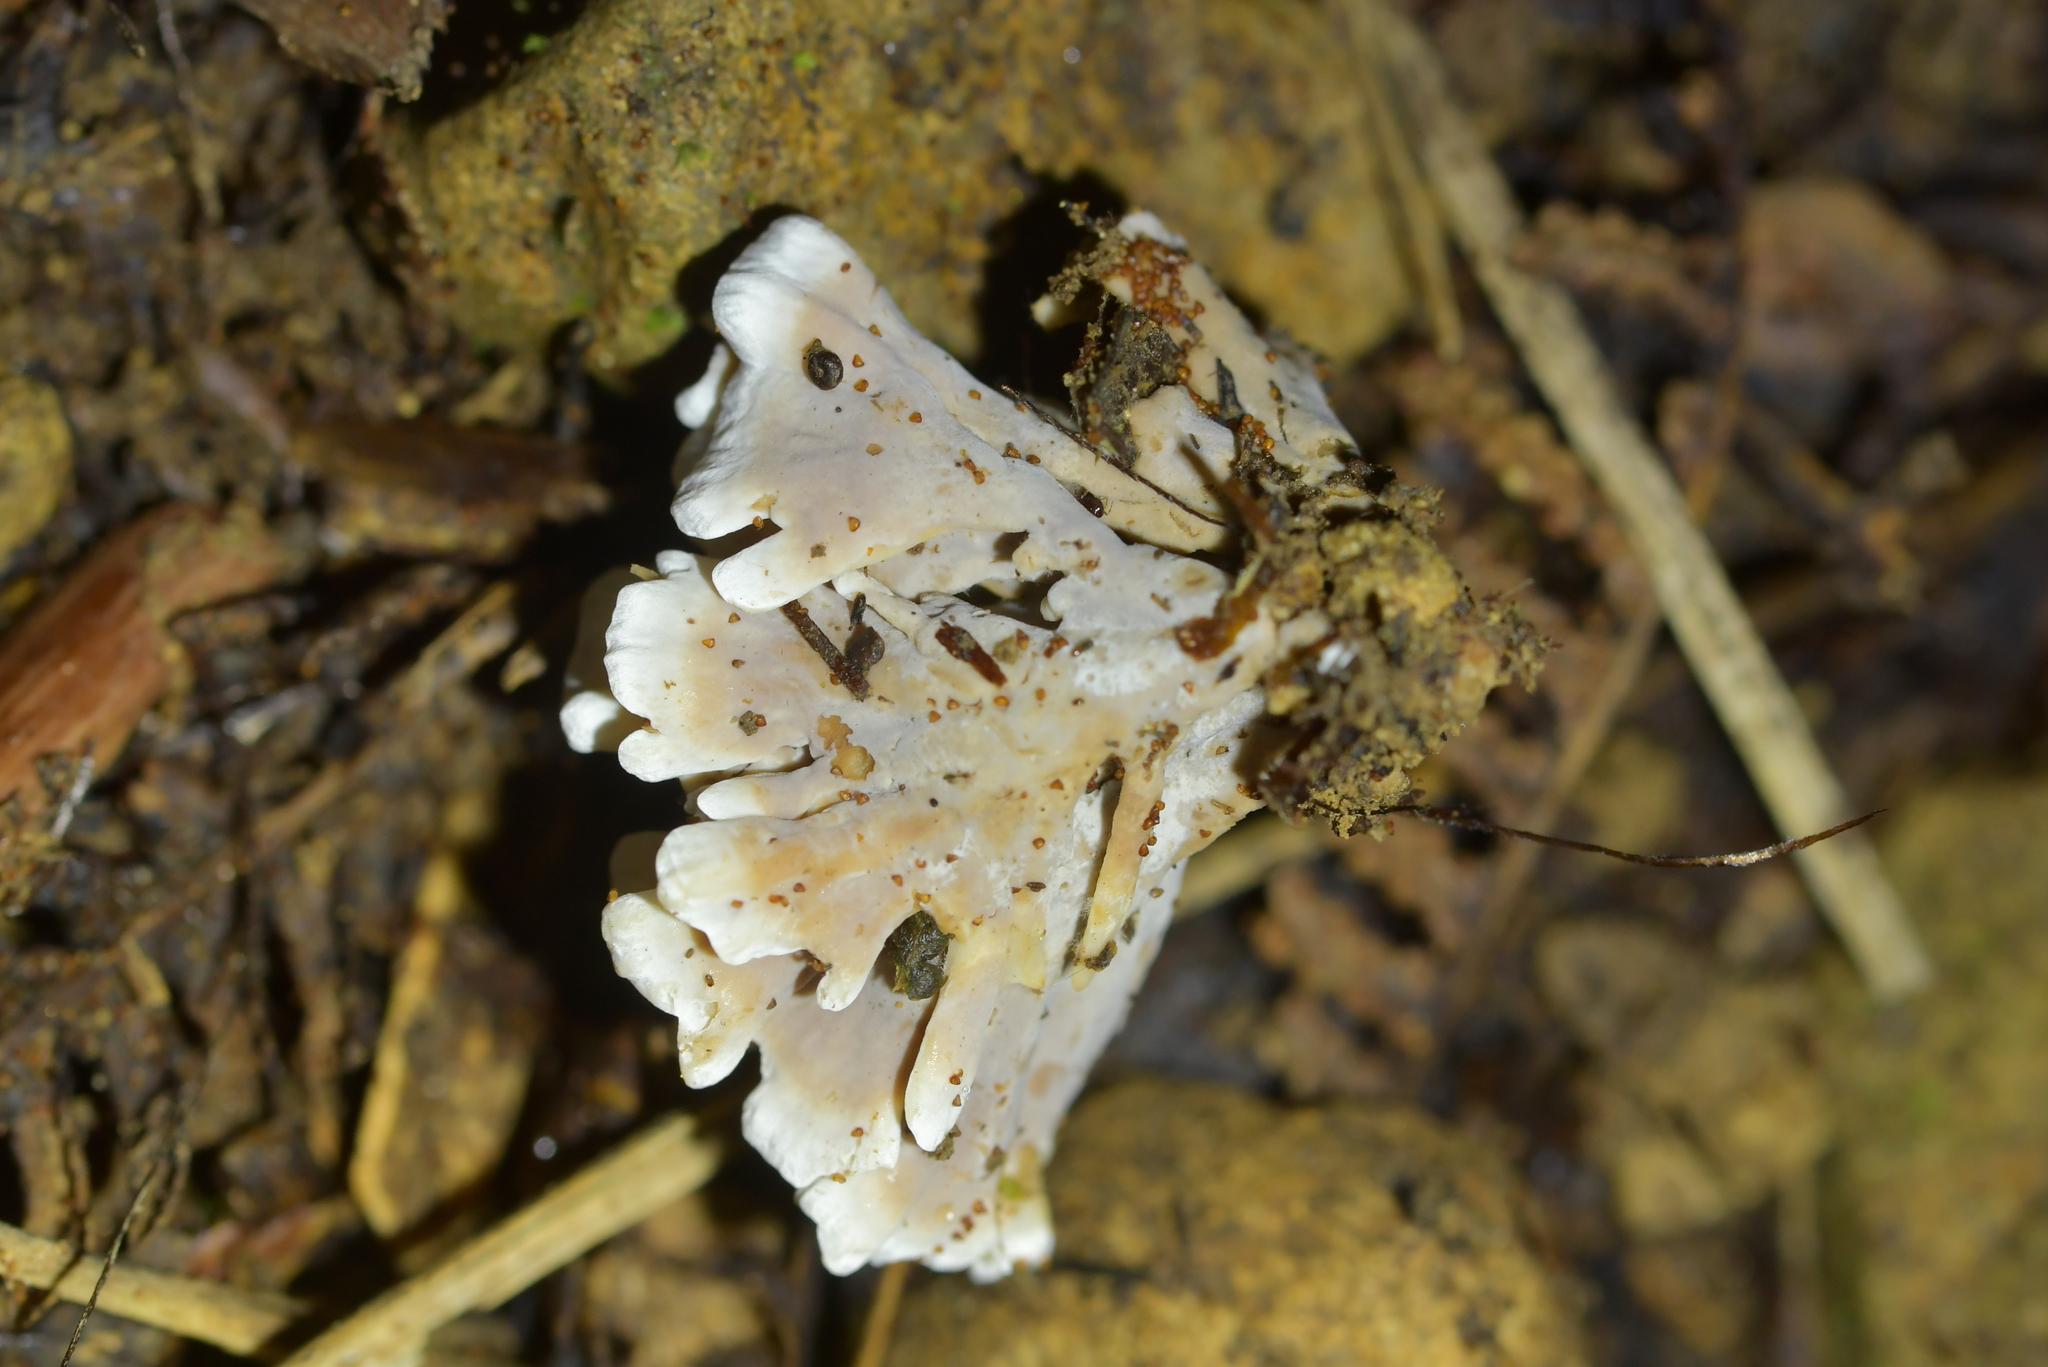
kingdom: Fungi
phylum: Basidiomycota
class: Agaricomycetes
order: Stereopsidales
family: Stereopsidaceae
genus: Stereopsis
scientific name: Stereopsis hiscens
